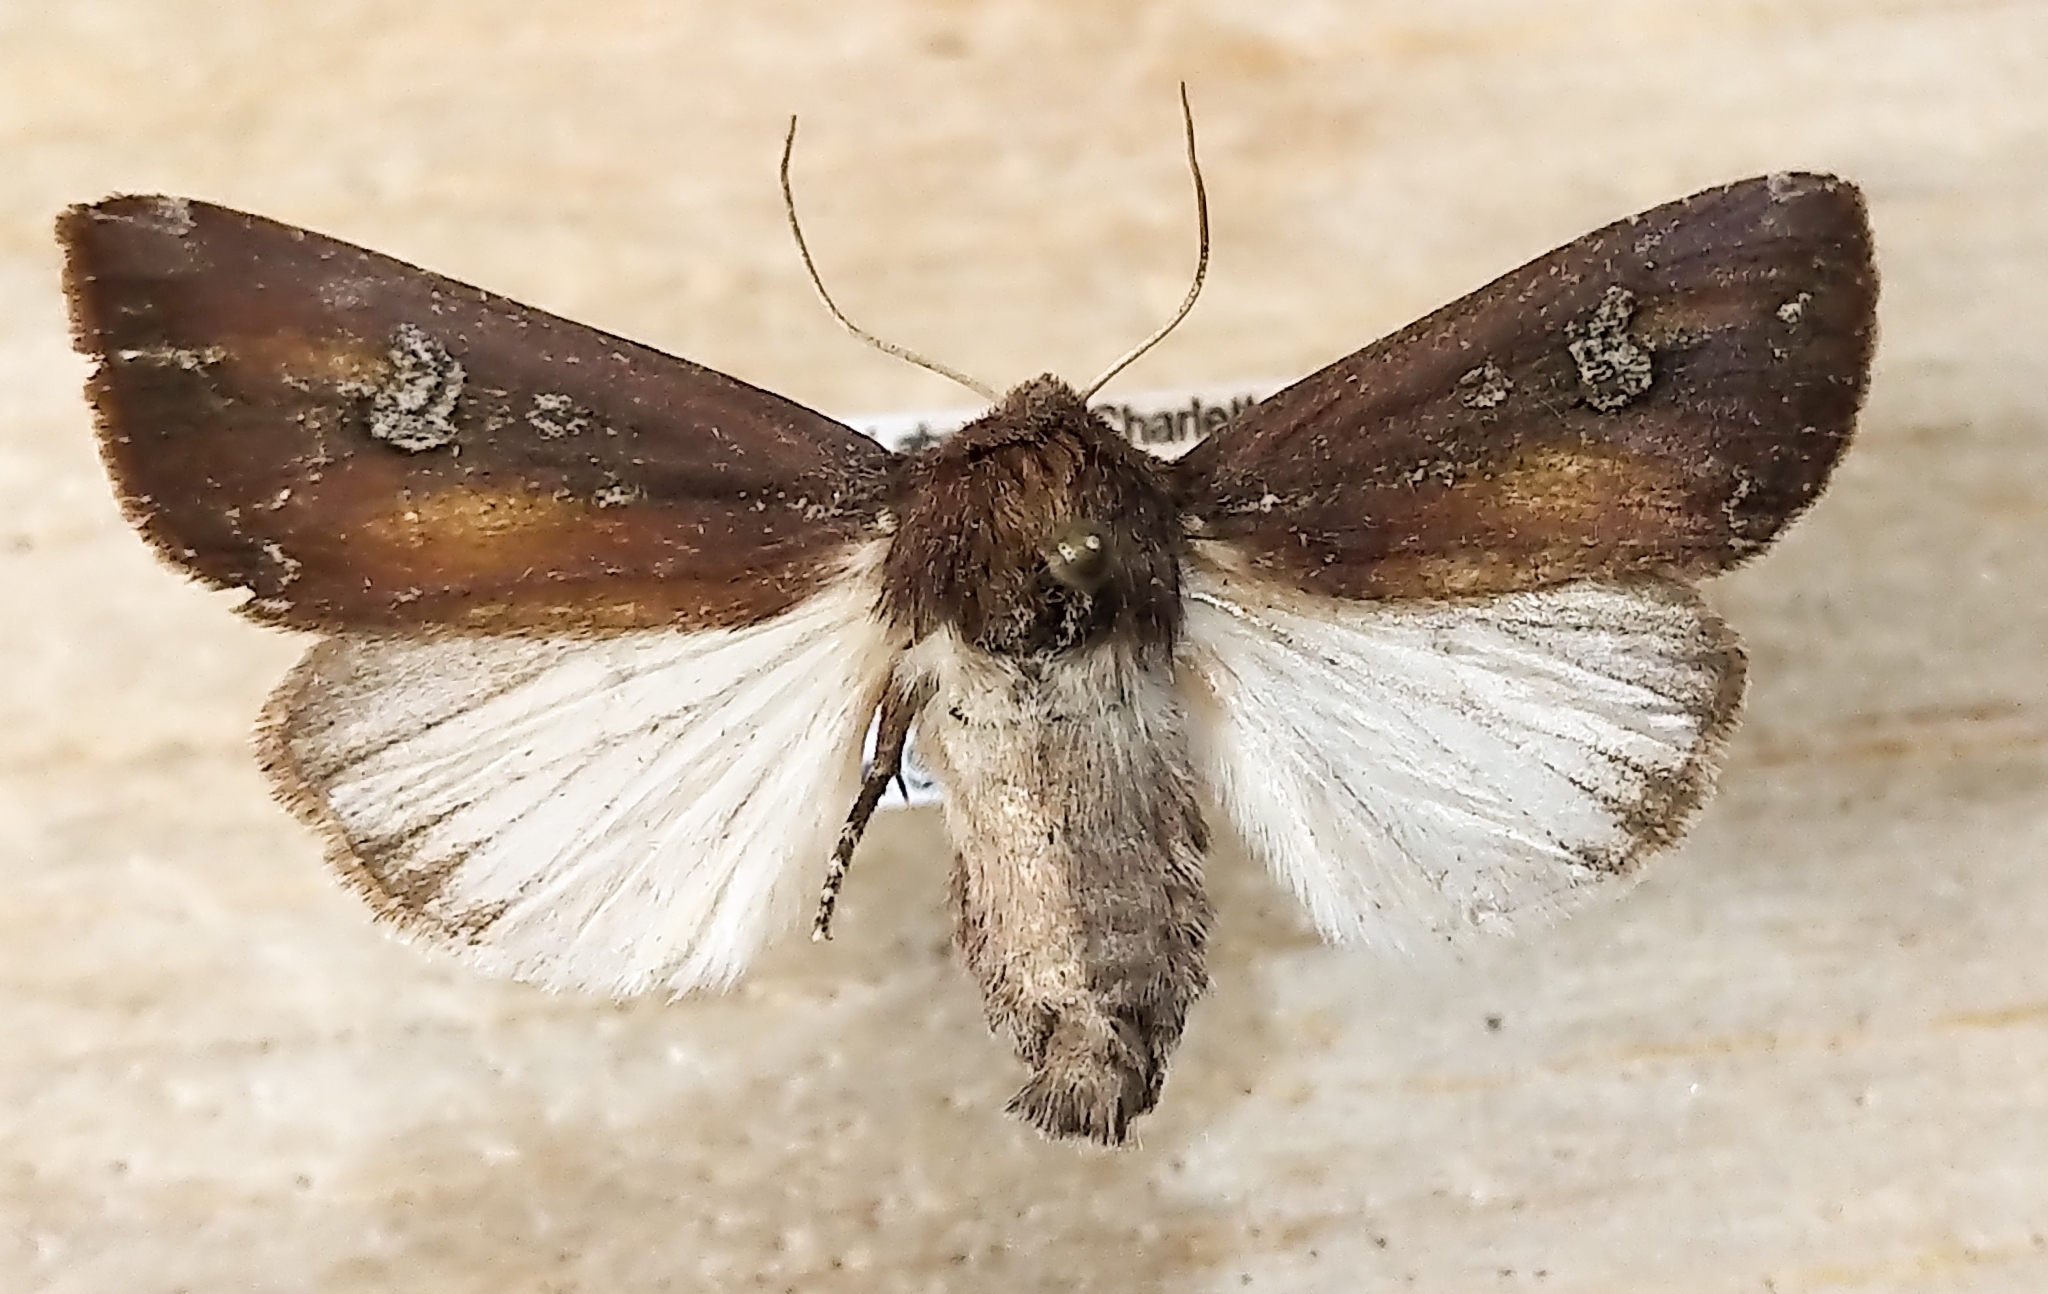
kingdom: Animalia
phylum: Arthropoda
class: Insecta
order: Lepidoptera
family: Noctuidae
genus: Melanchra
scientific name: Melanchra picta
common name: Zebra caterpillar
